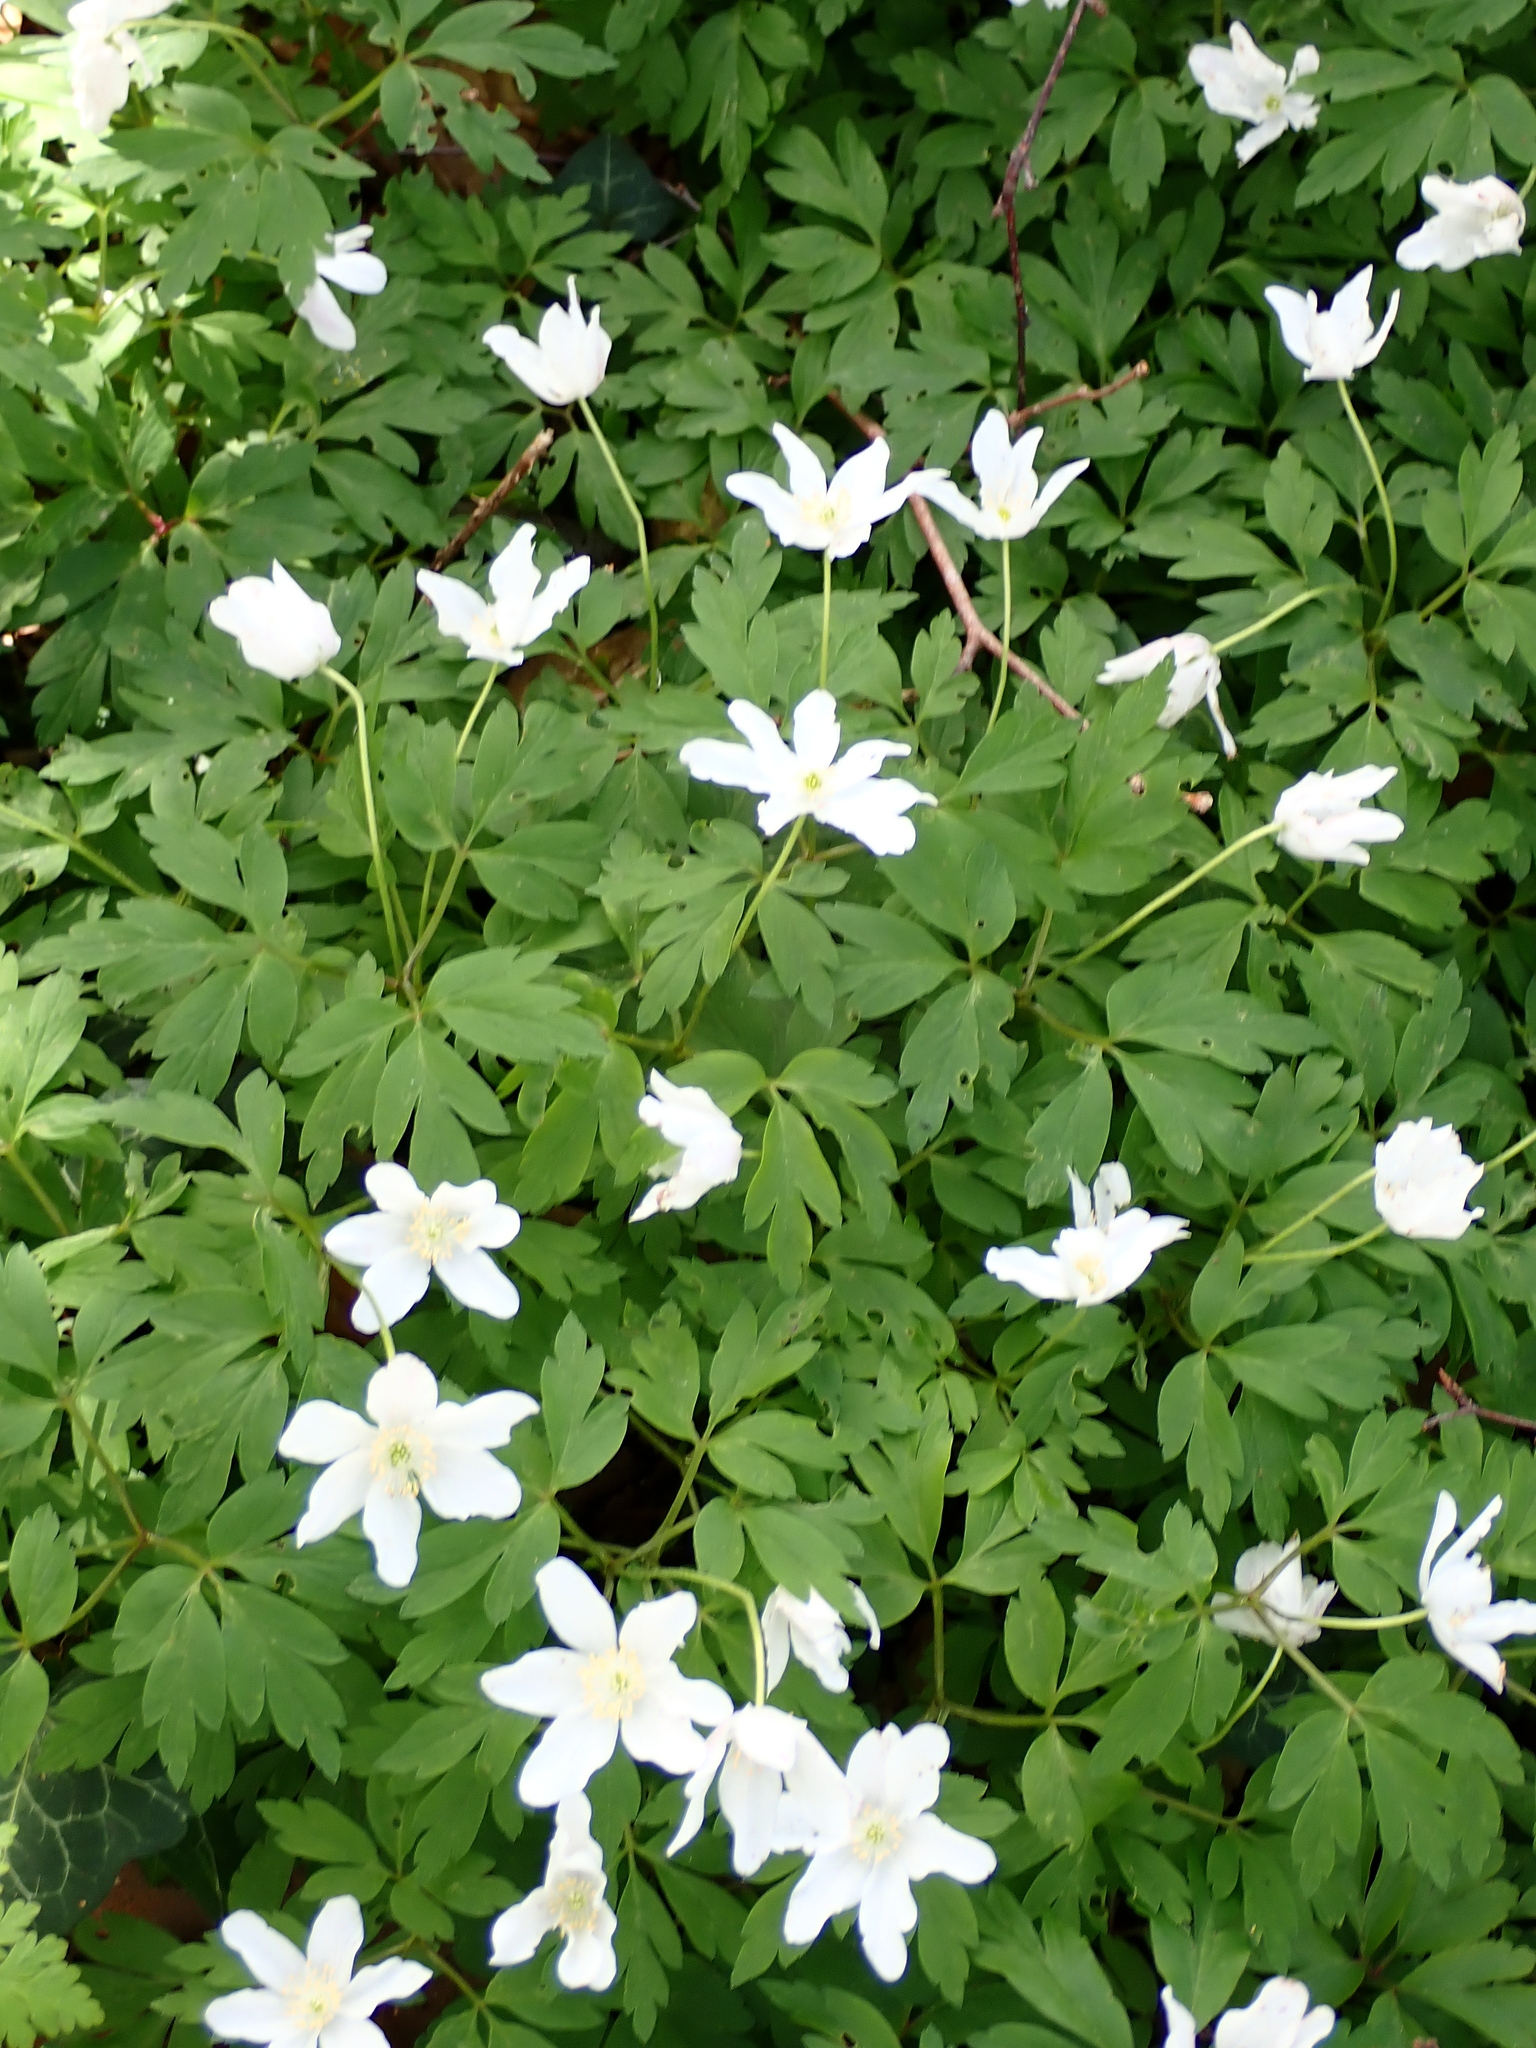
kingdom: Plantae
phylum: Tracheophyta
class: Magnoliopsida
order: Ranunculales
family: Ranunculaceae
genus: Anemone
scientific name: Anemone nemorosa
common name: Wood anemone
